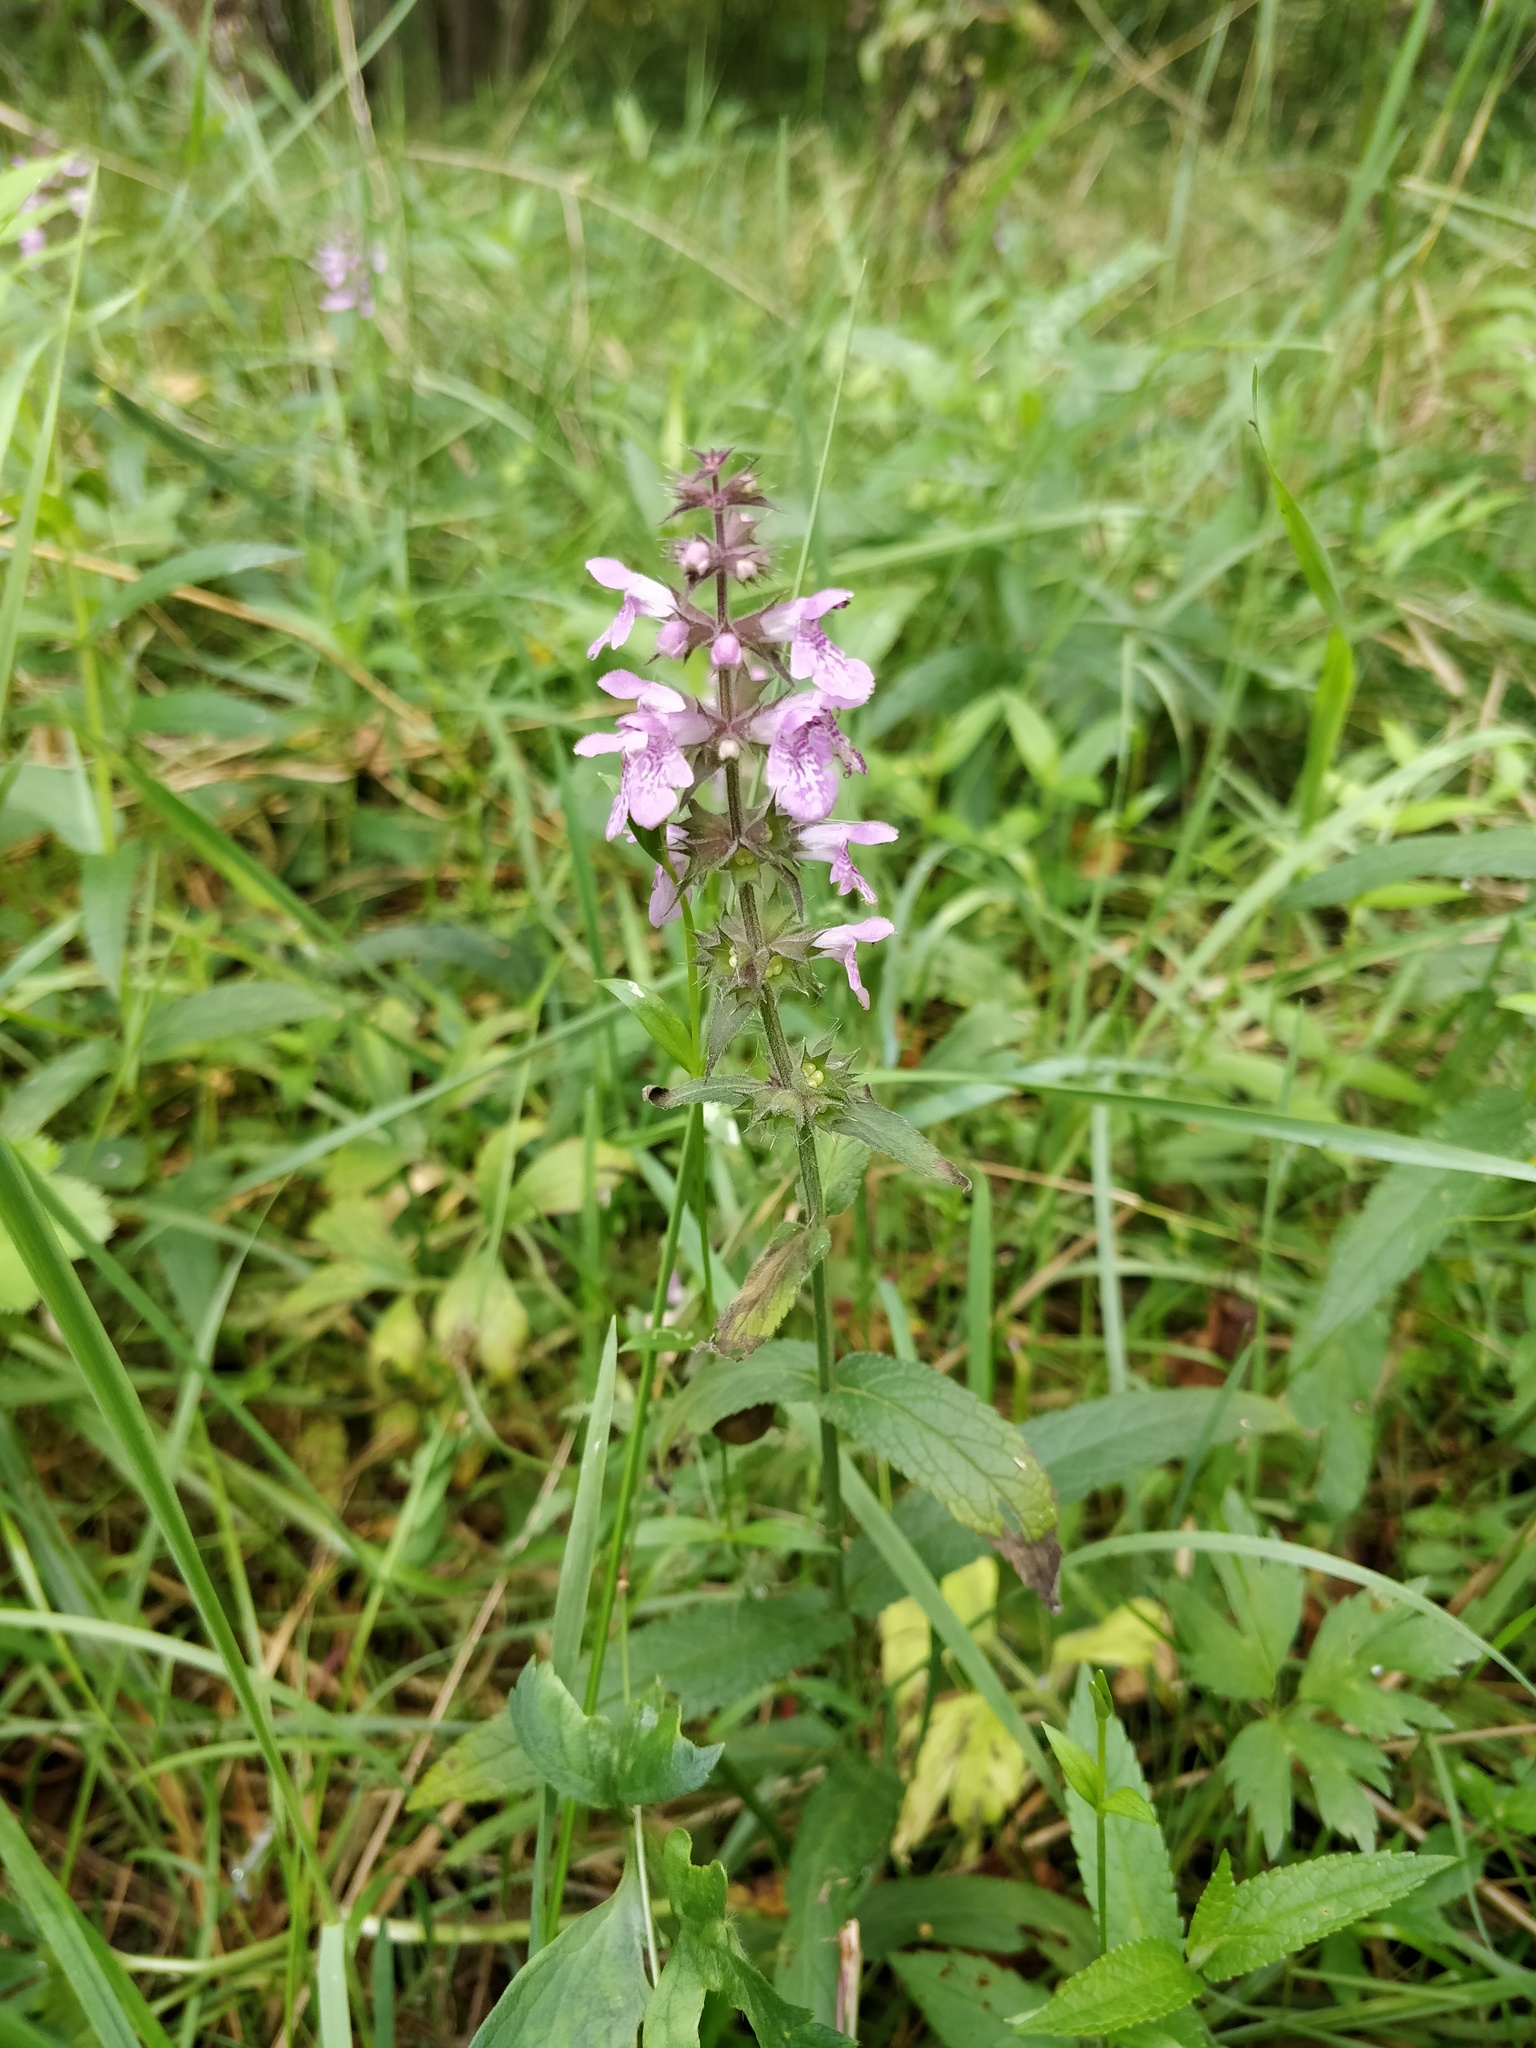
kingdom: Plantae
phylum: Tracheophyta
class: Magnoliopsida
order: Lamiales
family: Lamiaceae
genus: Stachys
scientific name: Stachys palustris
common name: Marsh woundwort
